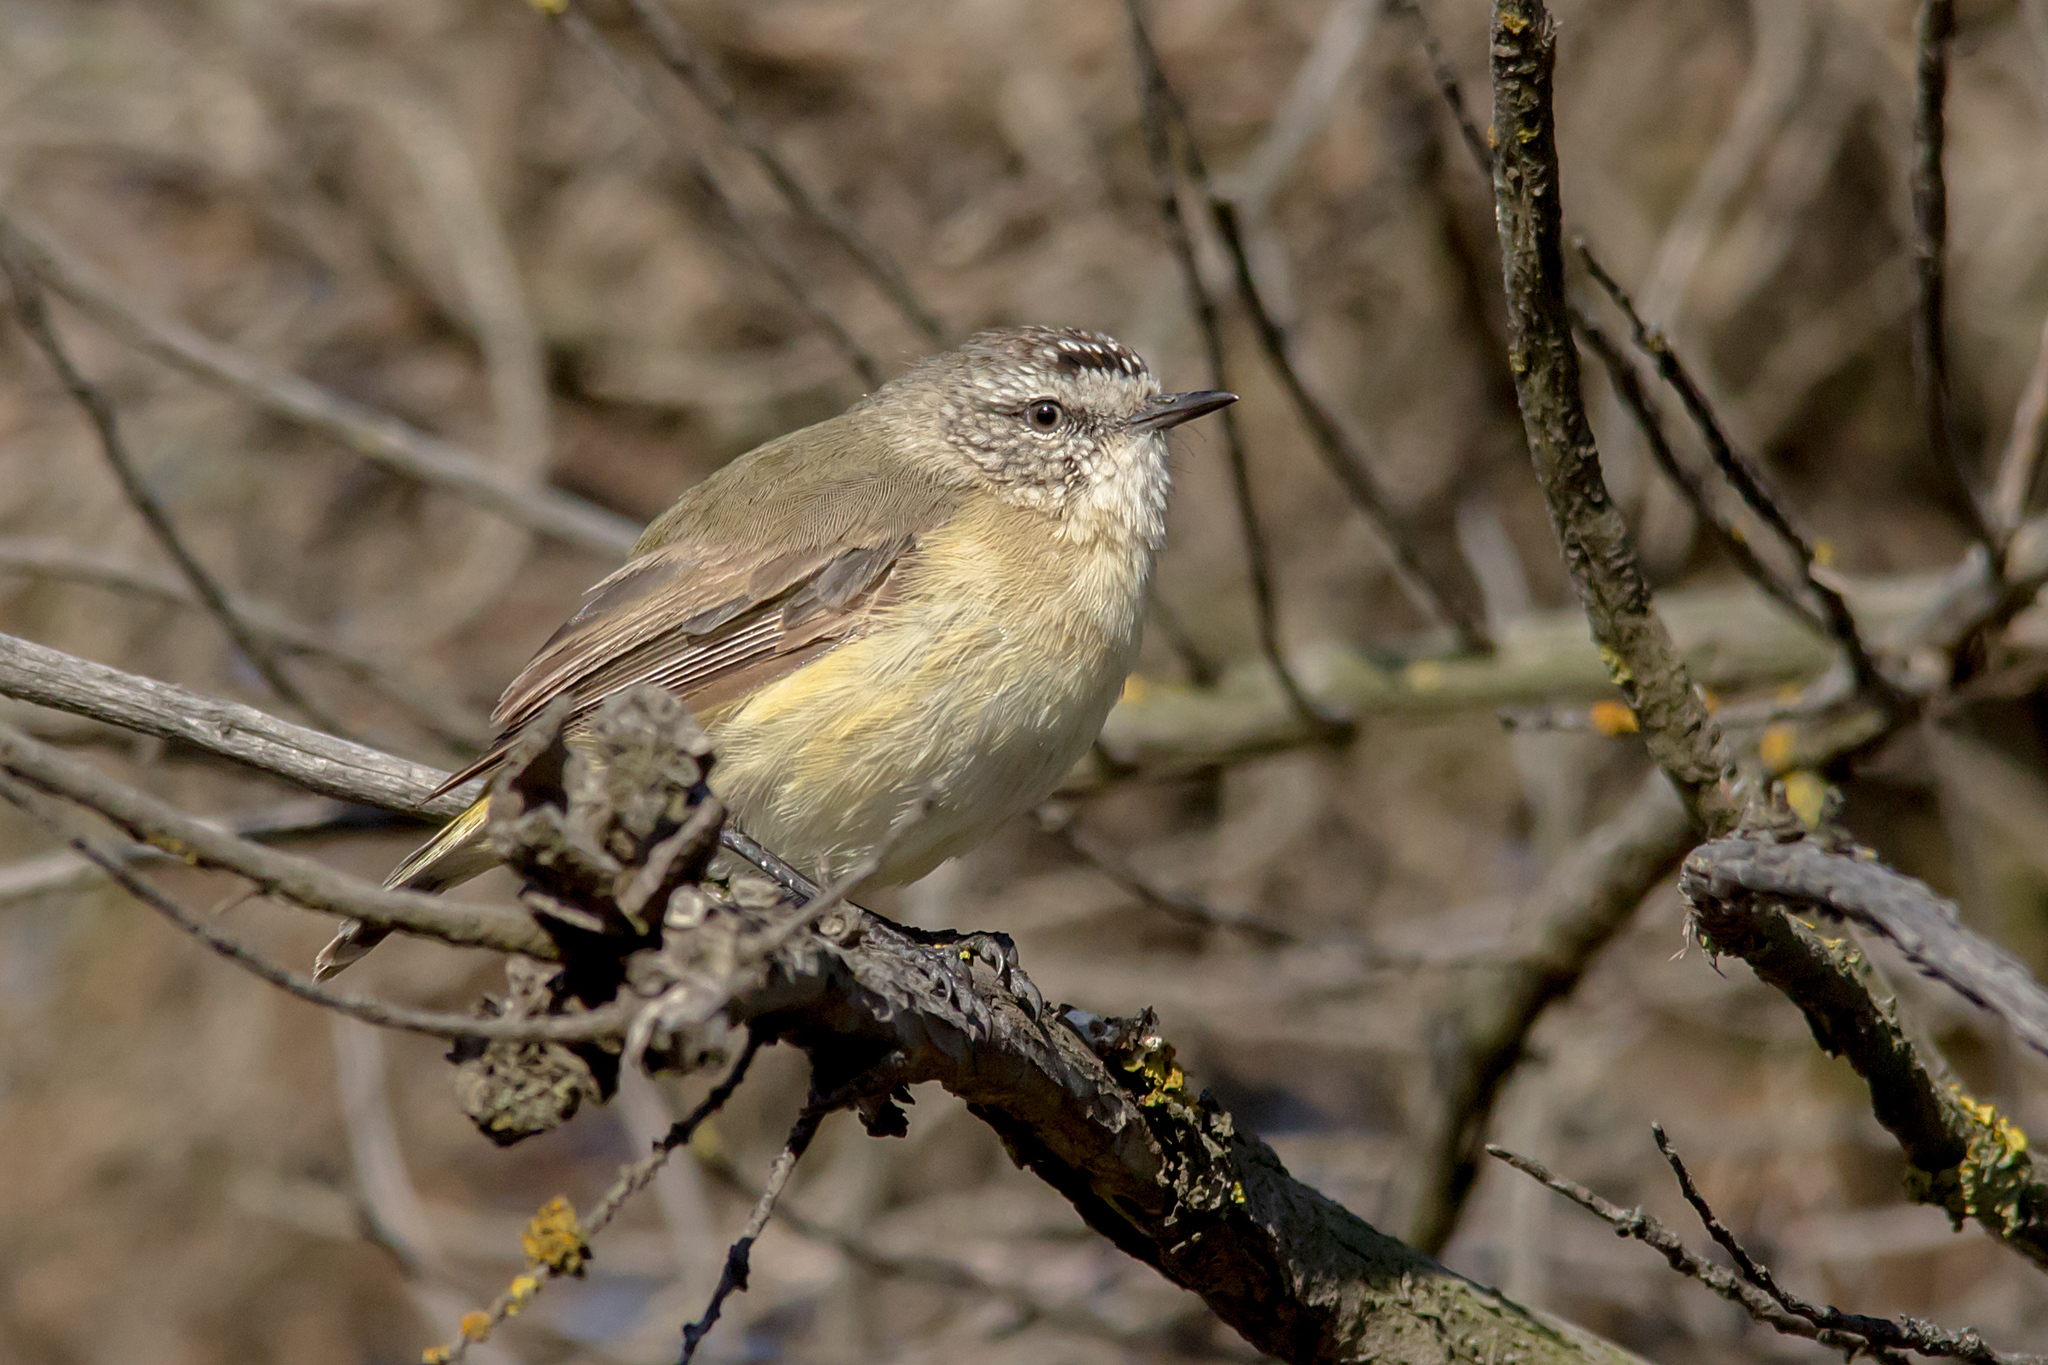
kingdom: Animalia
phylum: Chordata
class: Aves
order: Passeriformes
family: Acanthizidae
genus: Acanthiza
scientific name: Acanthiza chrysorrhoa
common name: Yellow-rumped thornbill
